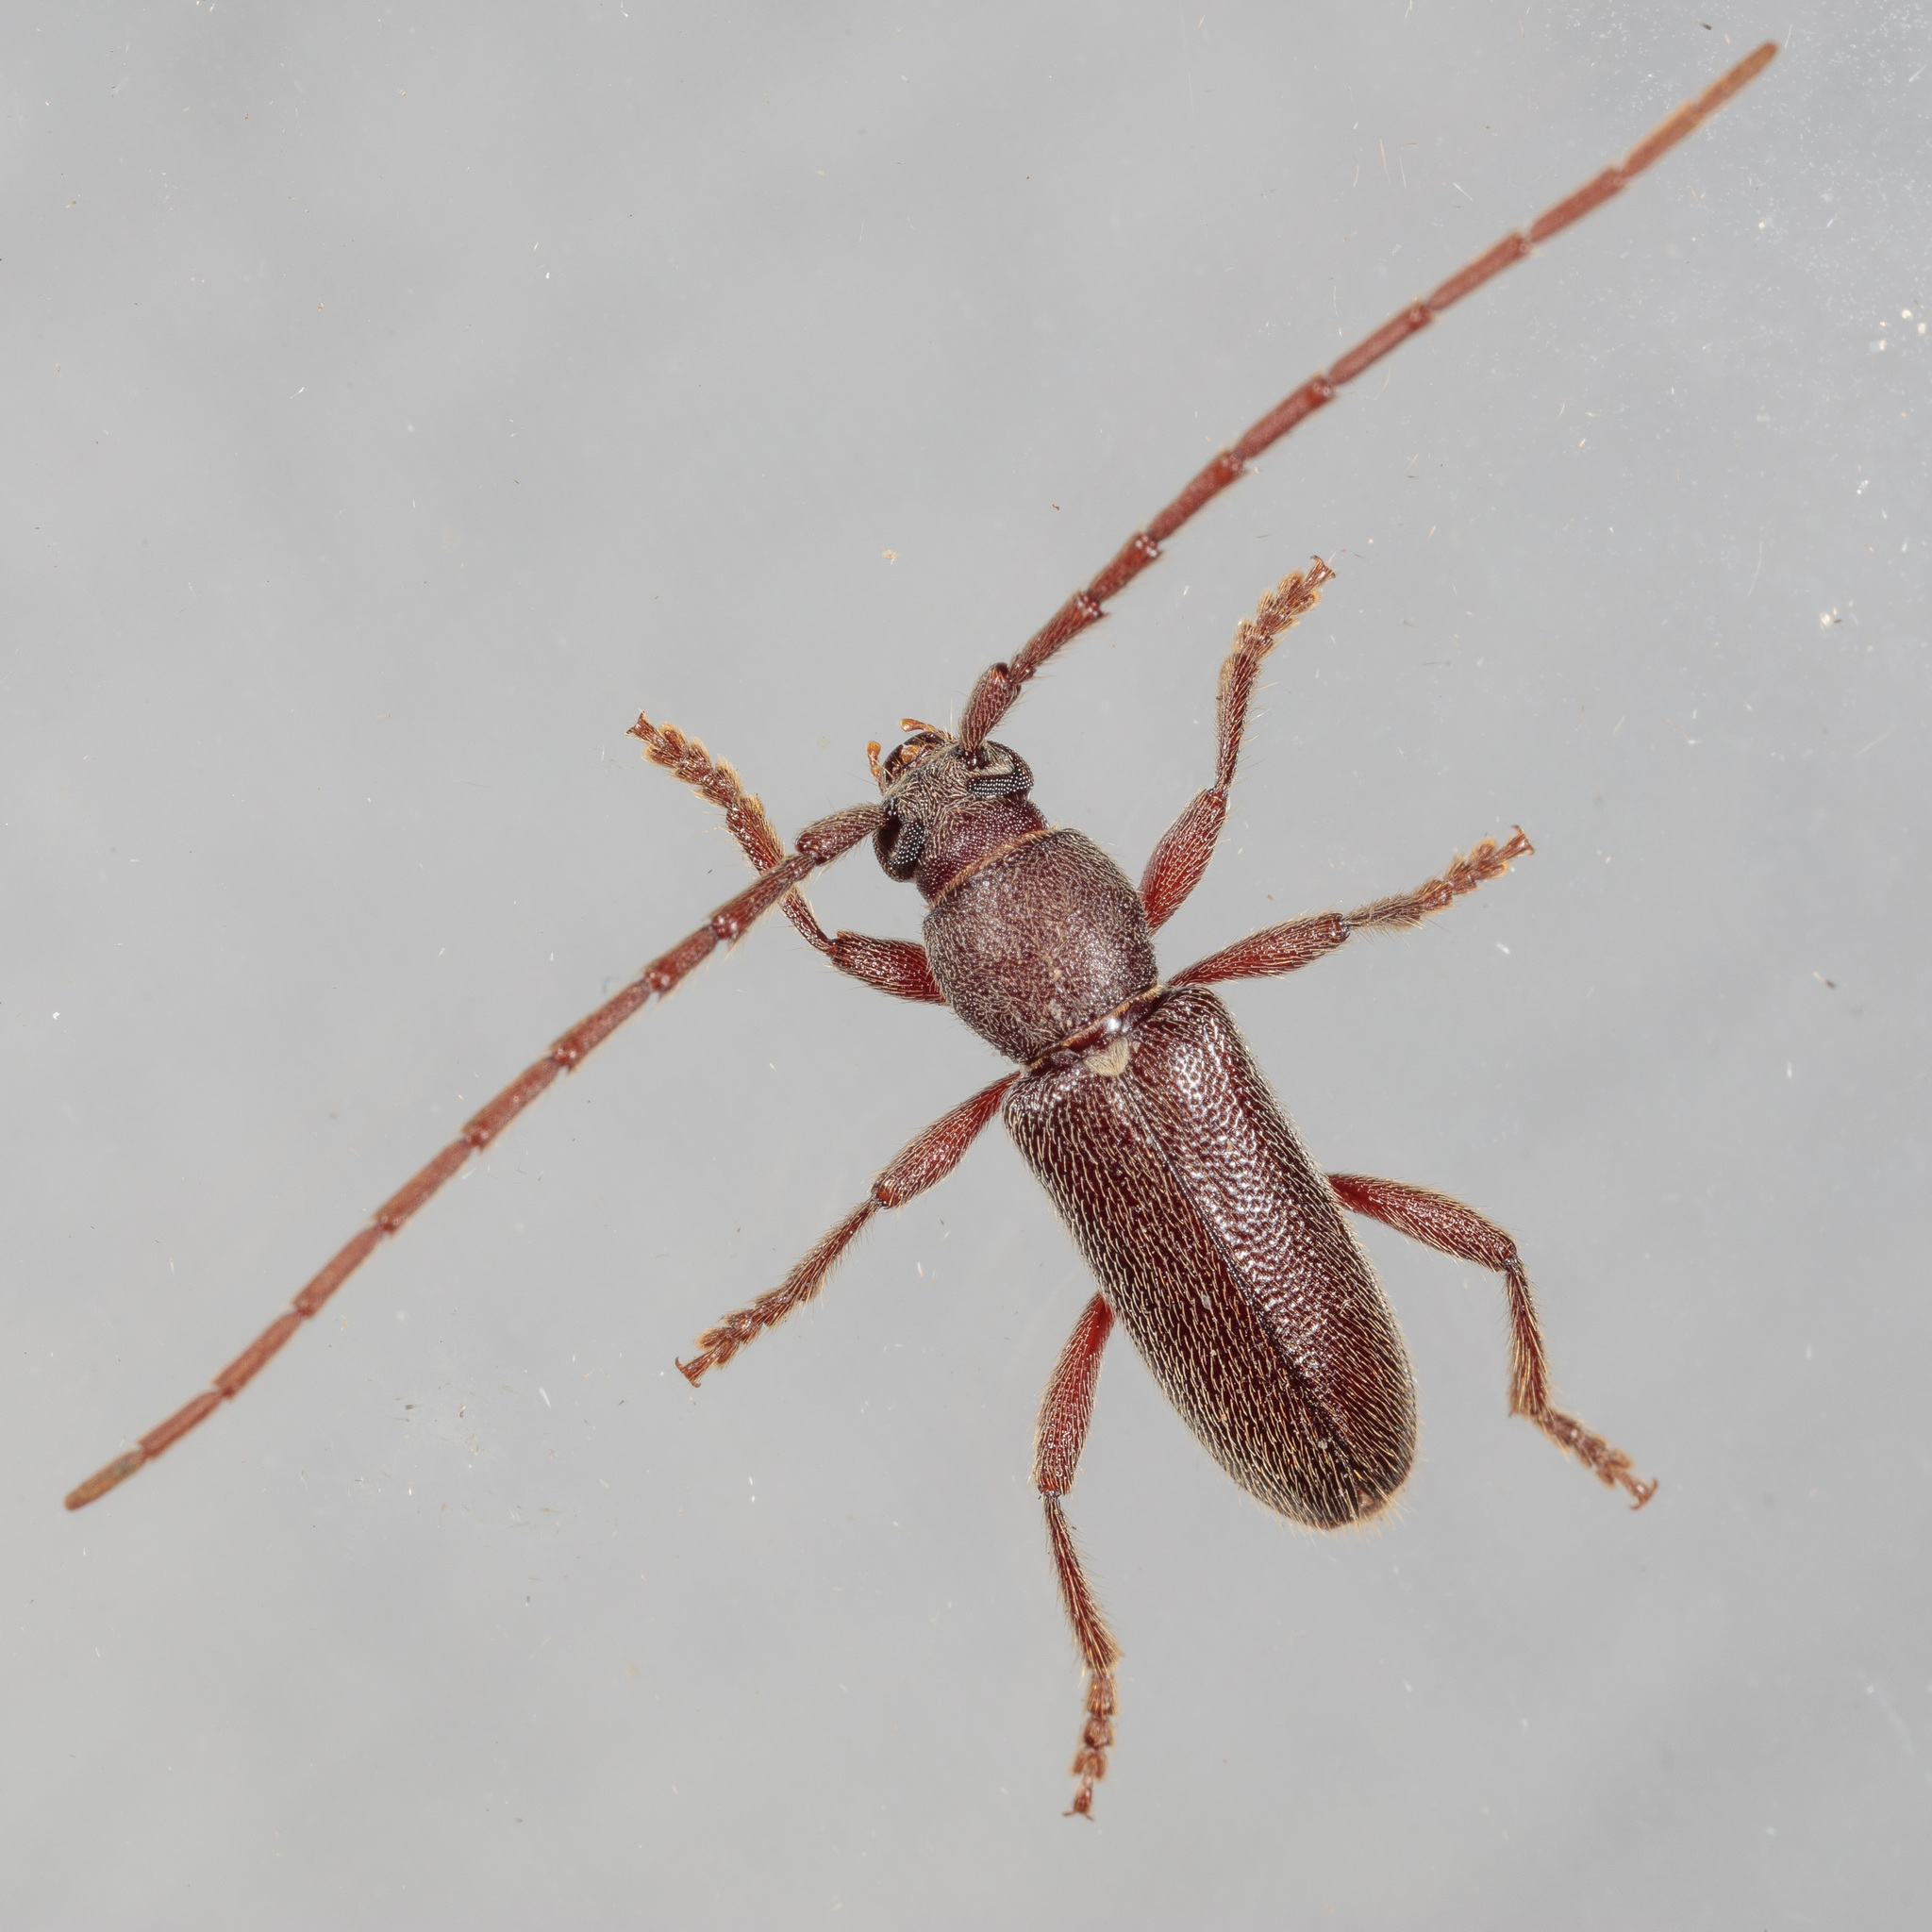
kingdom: Animalia
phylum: Arthropoda
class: Insecta
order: Coleoptera
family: Cerambycidae
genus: Anelaphus
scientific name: Anelaphus moestus
